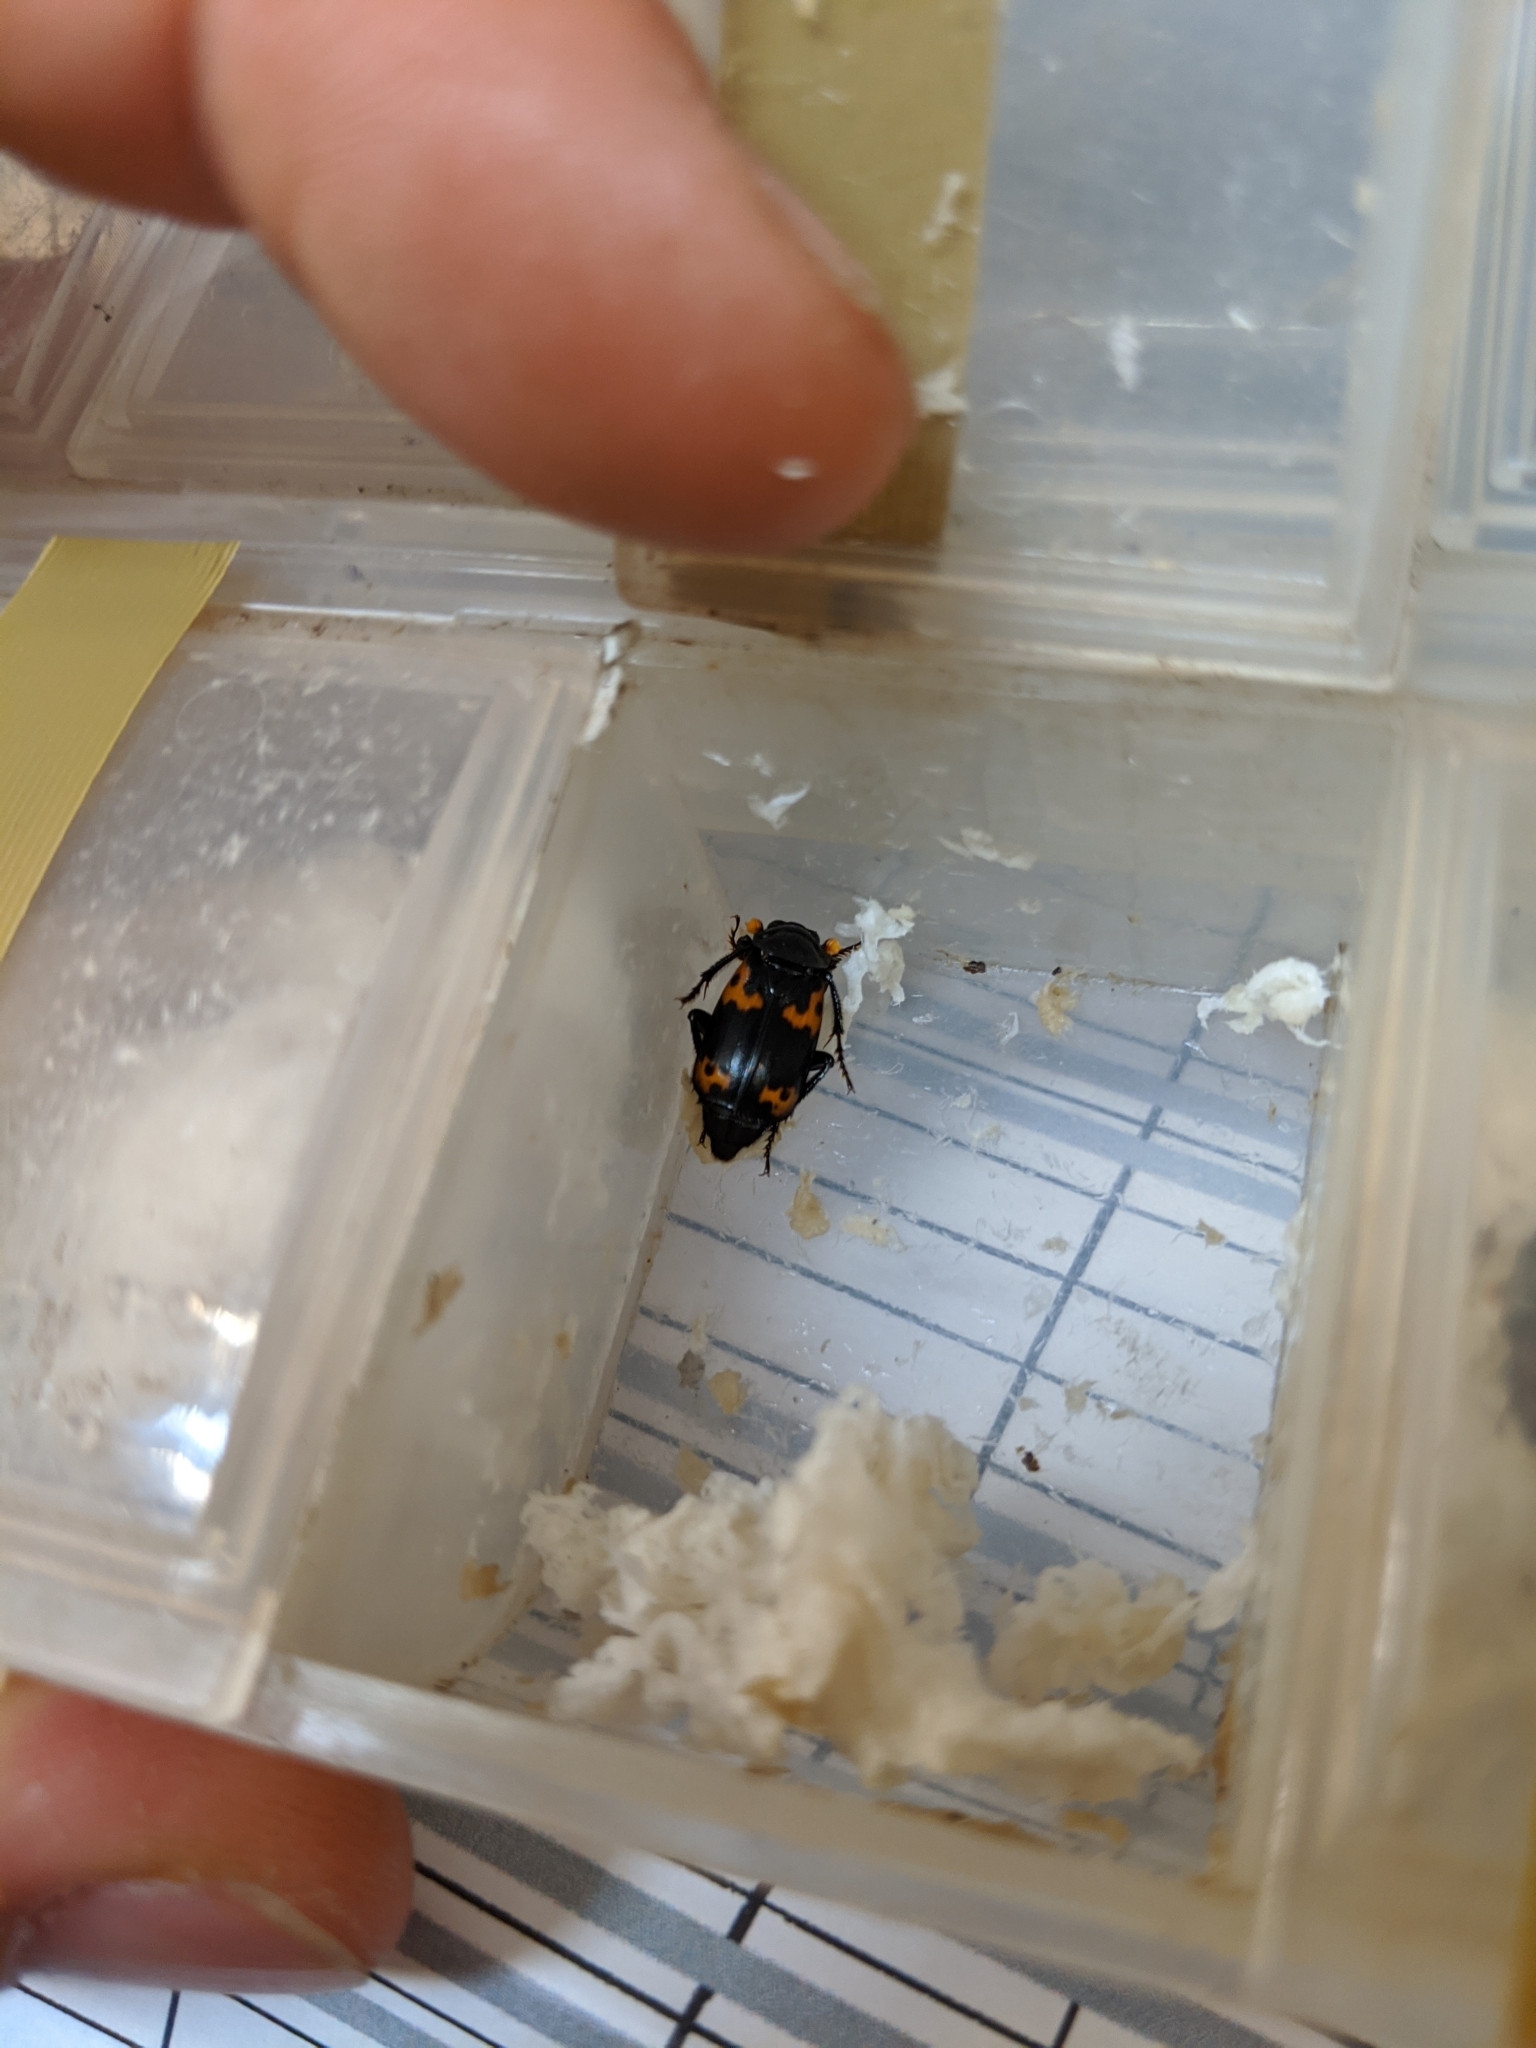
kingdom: Animalia
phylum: Arthropoda
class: Insecta
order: Coleoptera
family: Staphylinidae
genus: Nicrophorus
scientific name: Nicrophorus nepalensis
